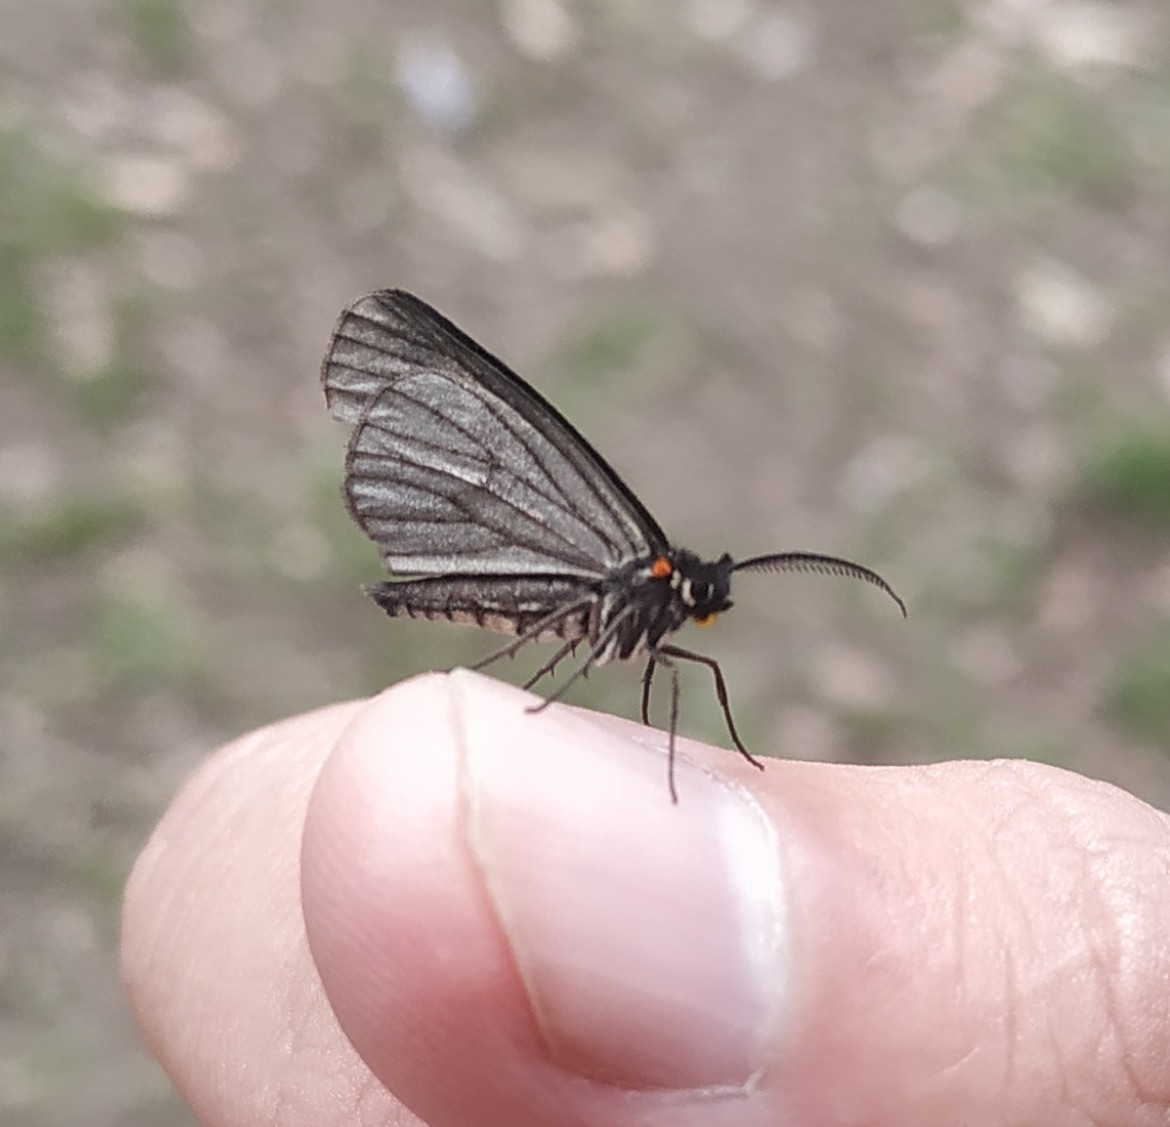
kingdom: Animalia
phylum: Arthropoda
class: Insecta
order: Lepidoptera
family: Geometridae
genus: Sangalopsis
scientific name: Sangalopsis ficifera
